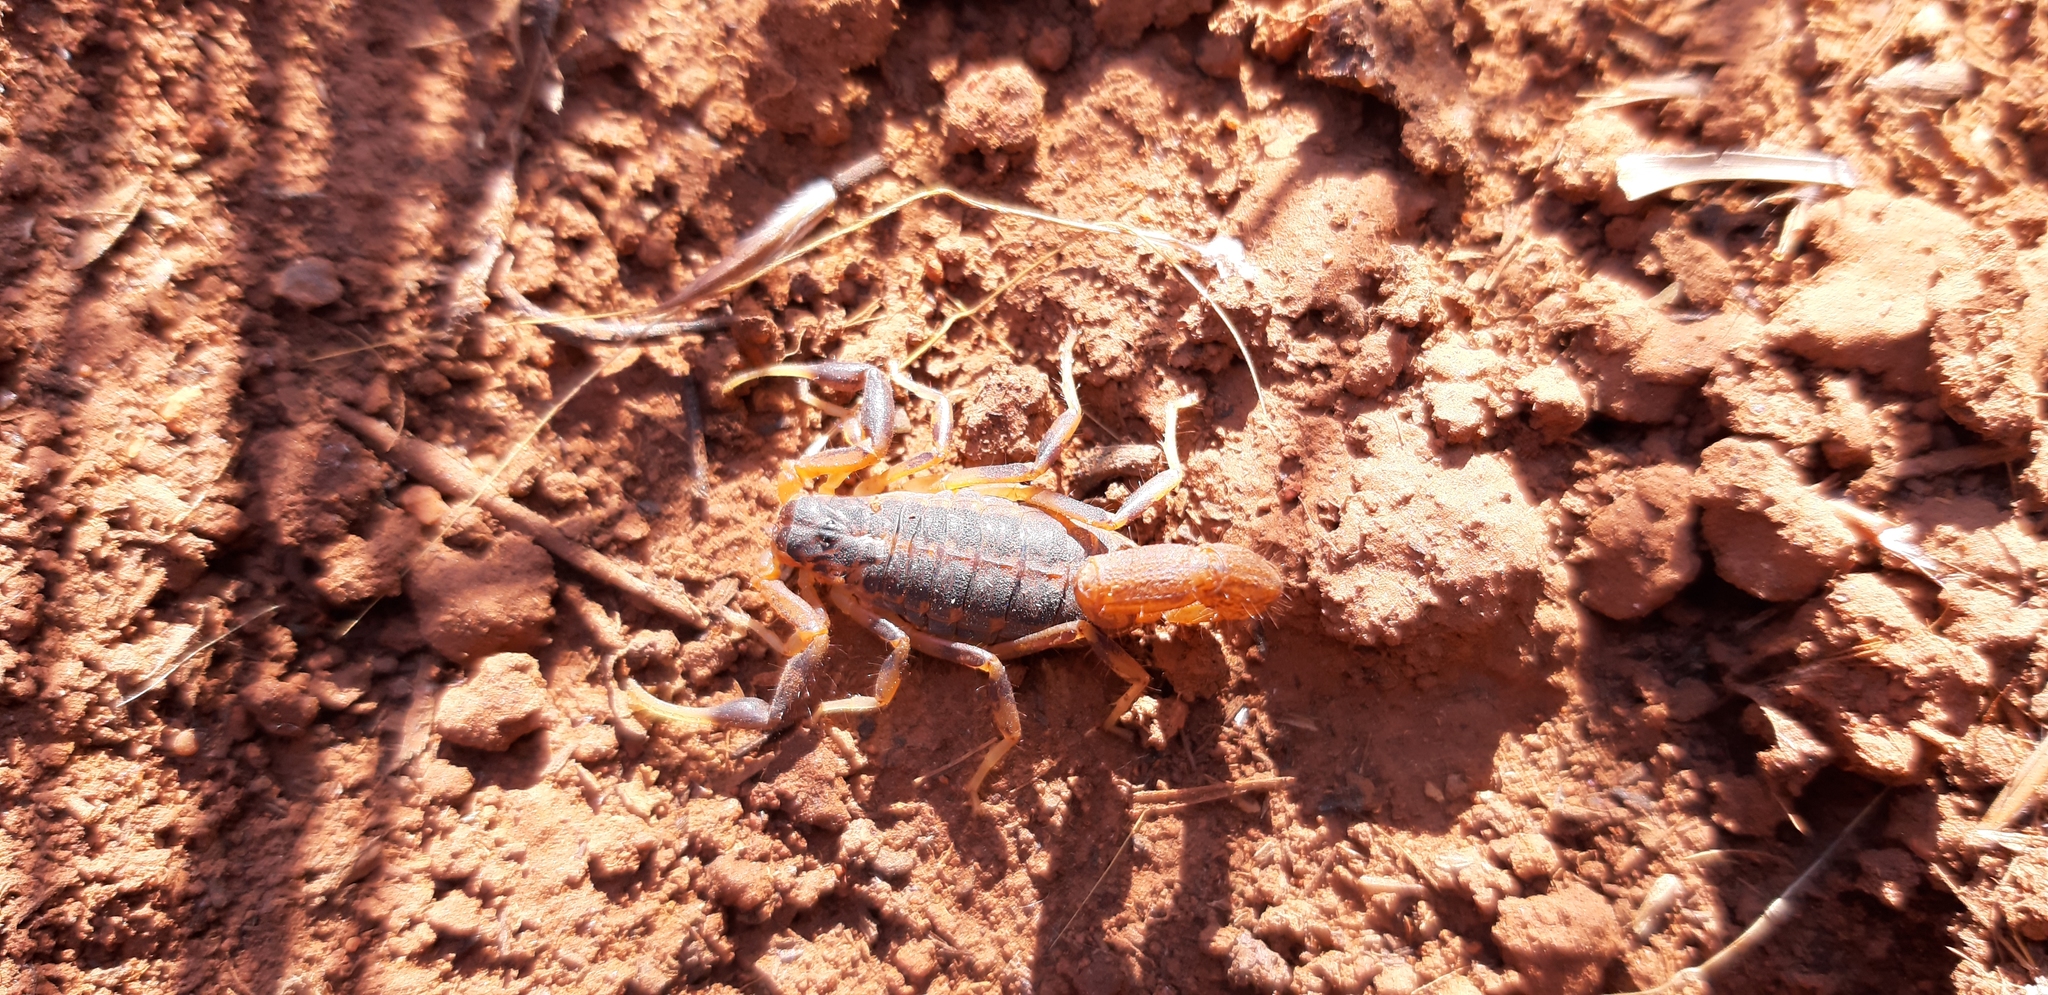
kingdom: Animalia
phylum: Arthropoda
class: Arachnida
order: Scorpiones
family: Buthidae
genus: Uroplectes
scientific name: Uroplectes triangulifer
